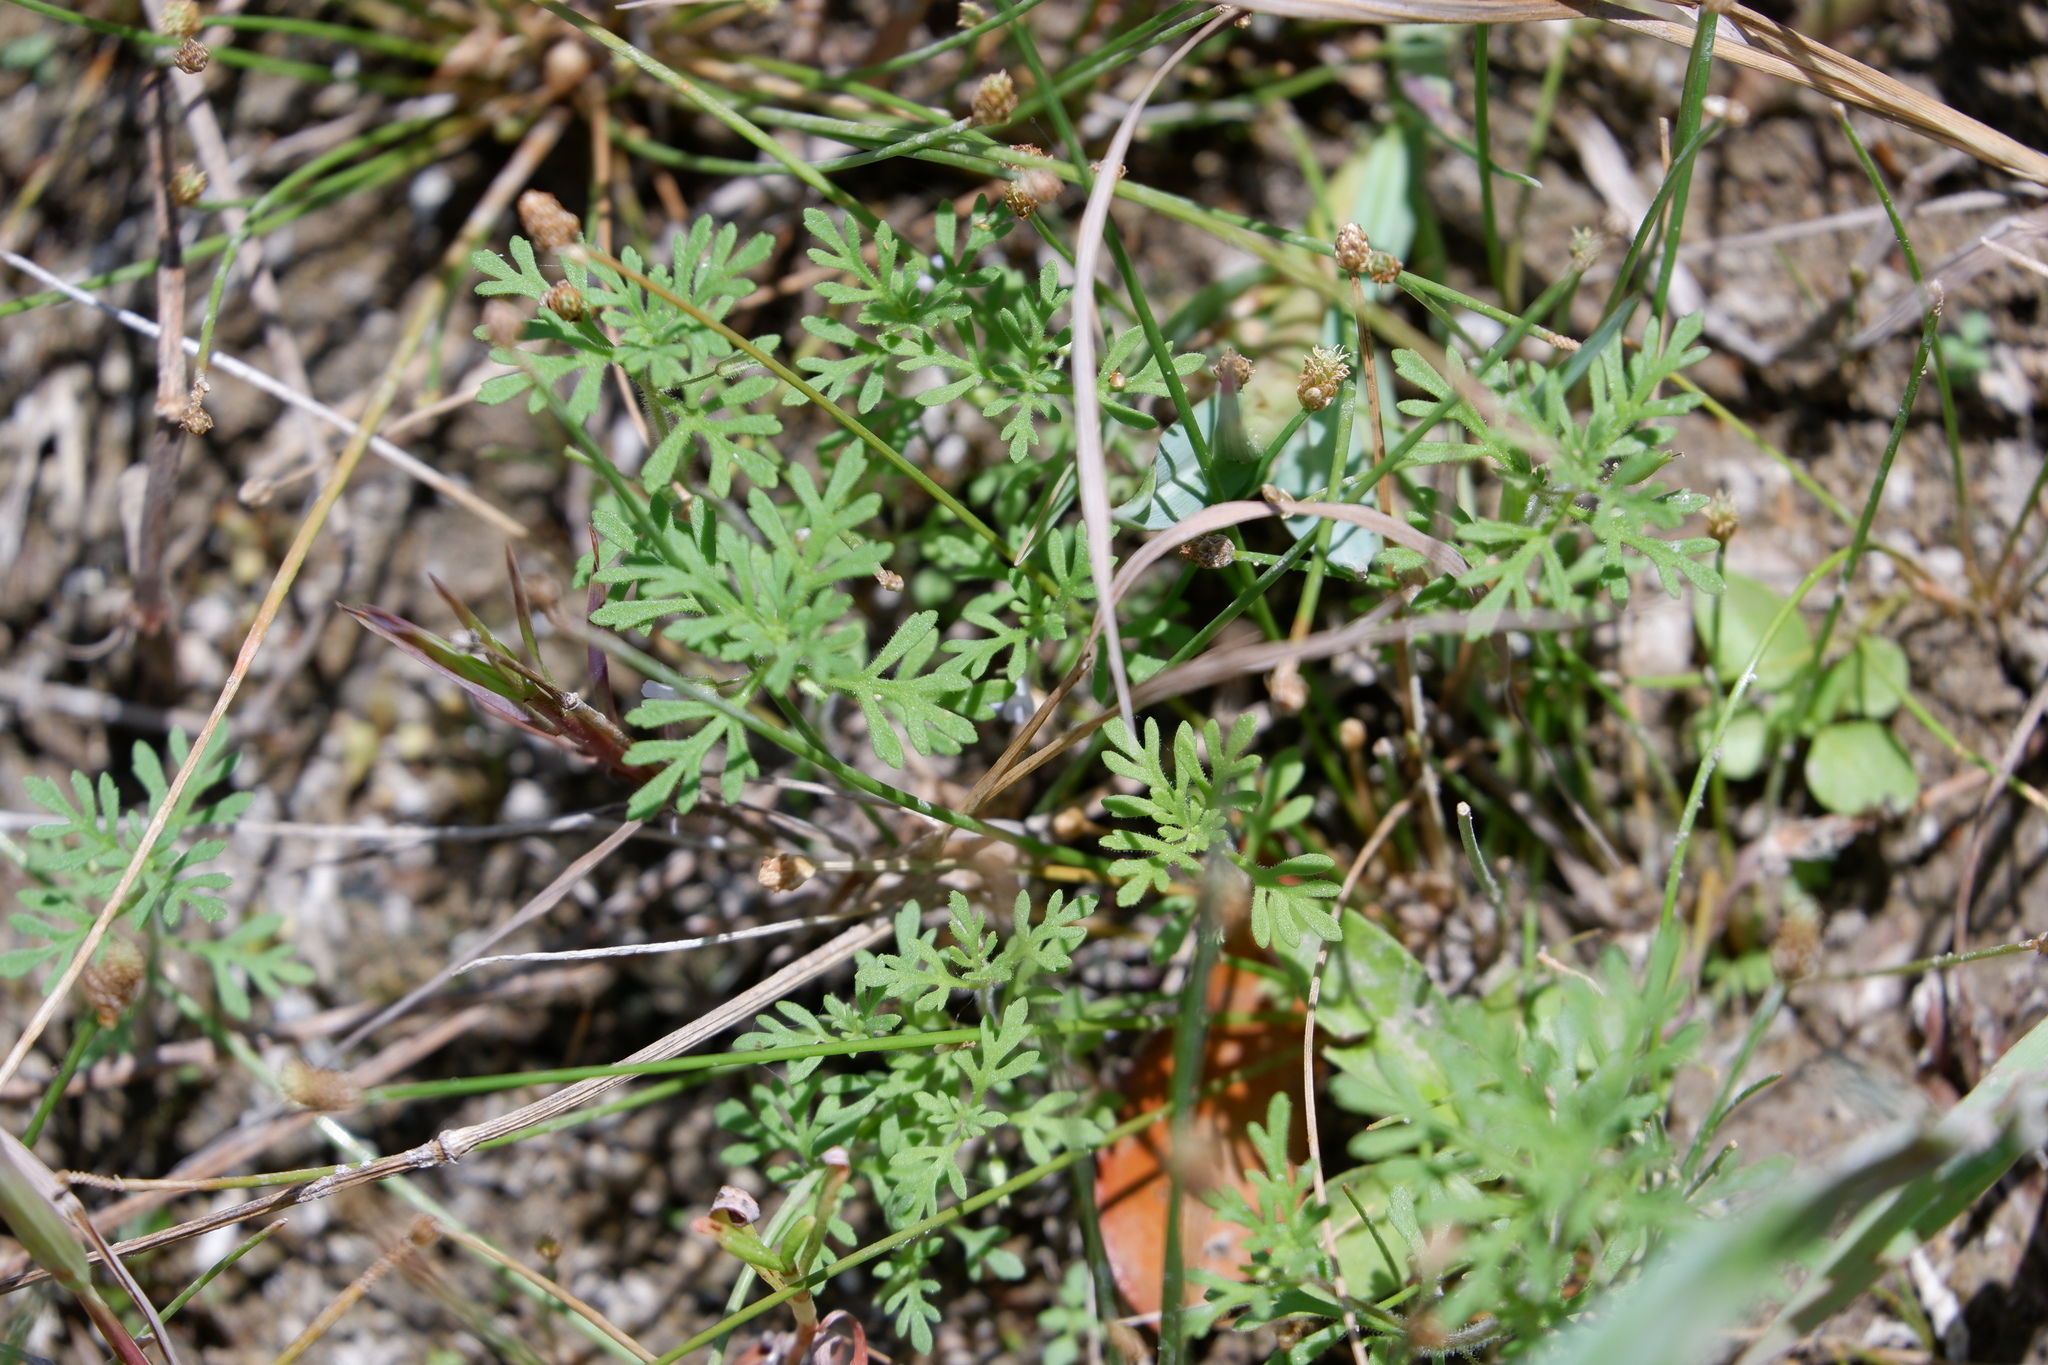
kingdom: Plantae
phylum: Tracheophyta
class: Magnoliopsida
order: Lamiales
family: Plantaginaceae
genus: Leucospora
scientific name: Leucospora multifida
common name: Narrow-leaf paleseed
